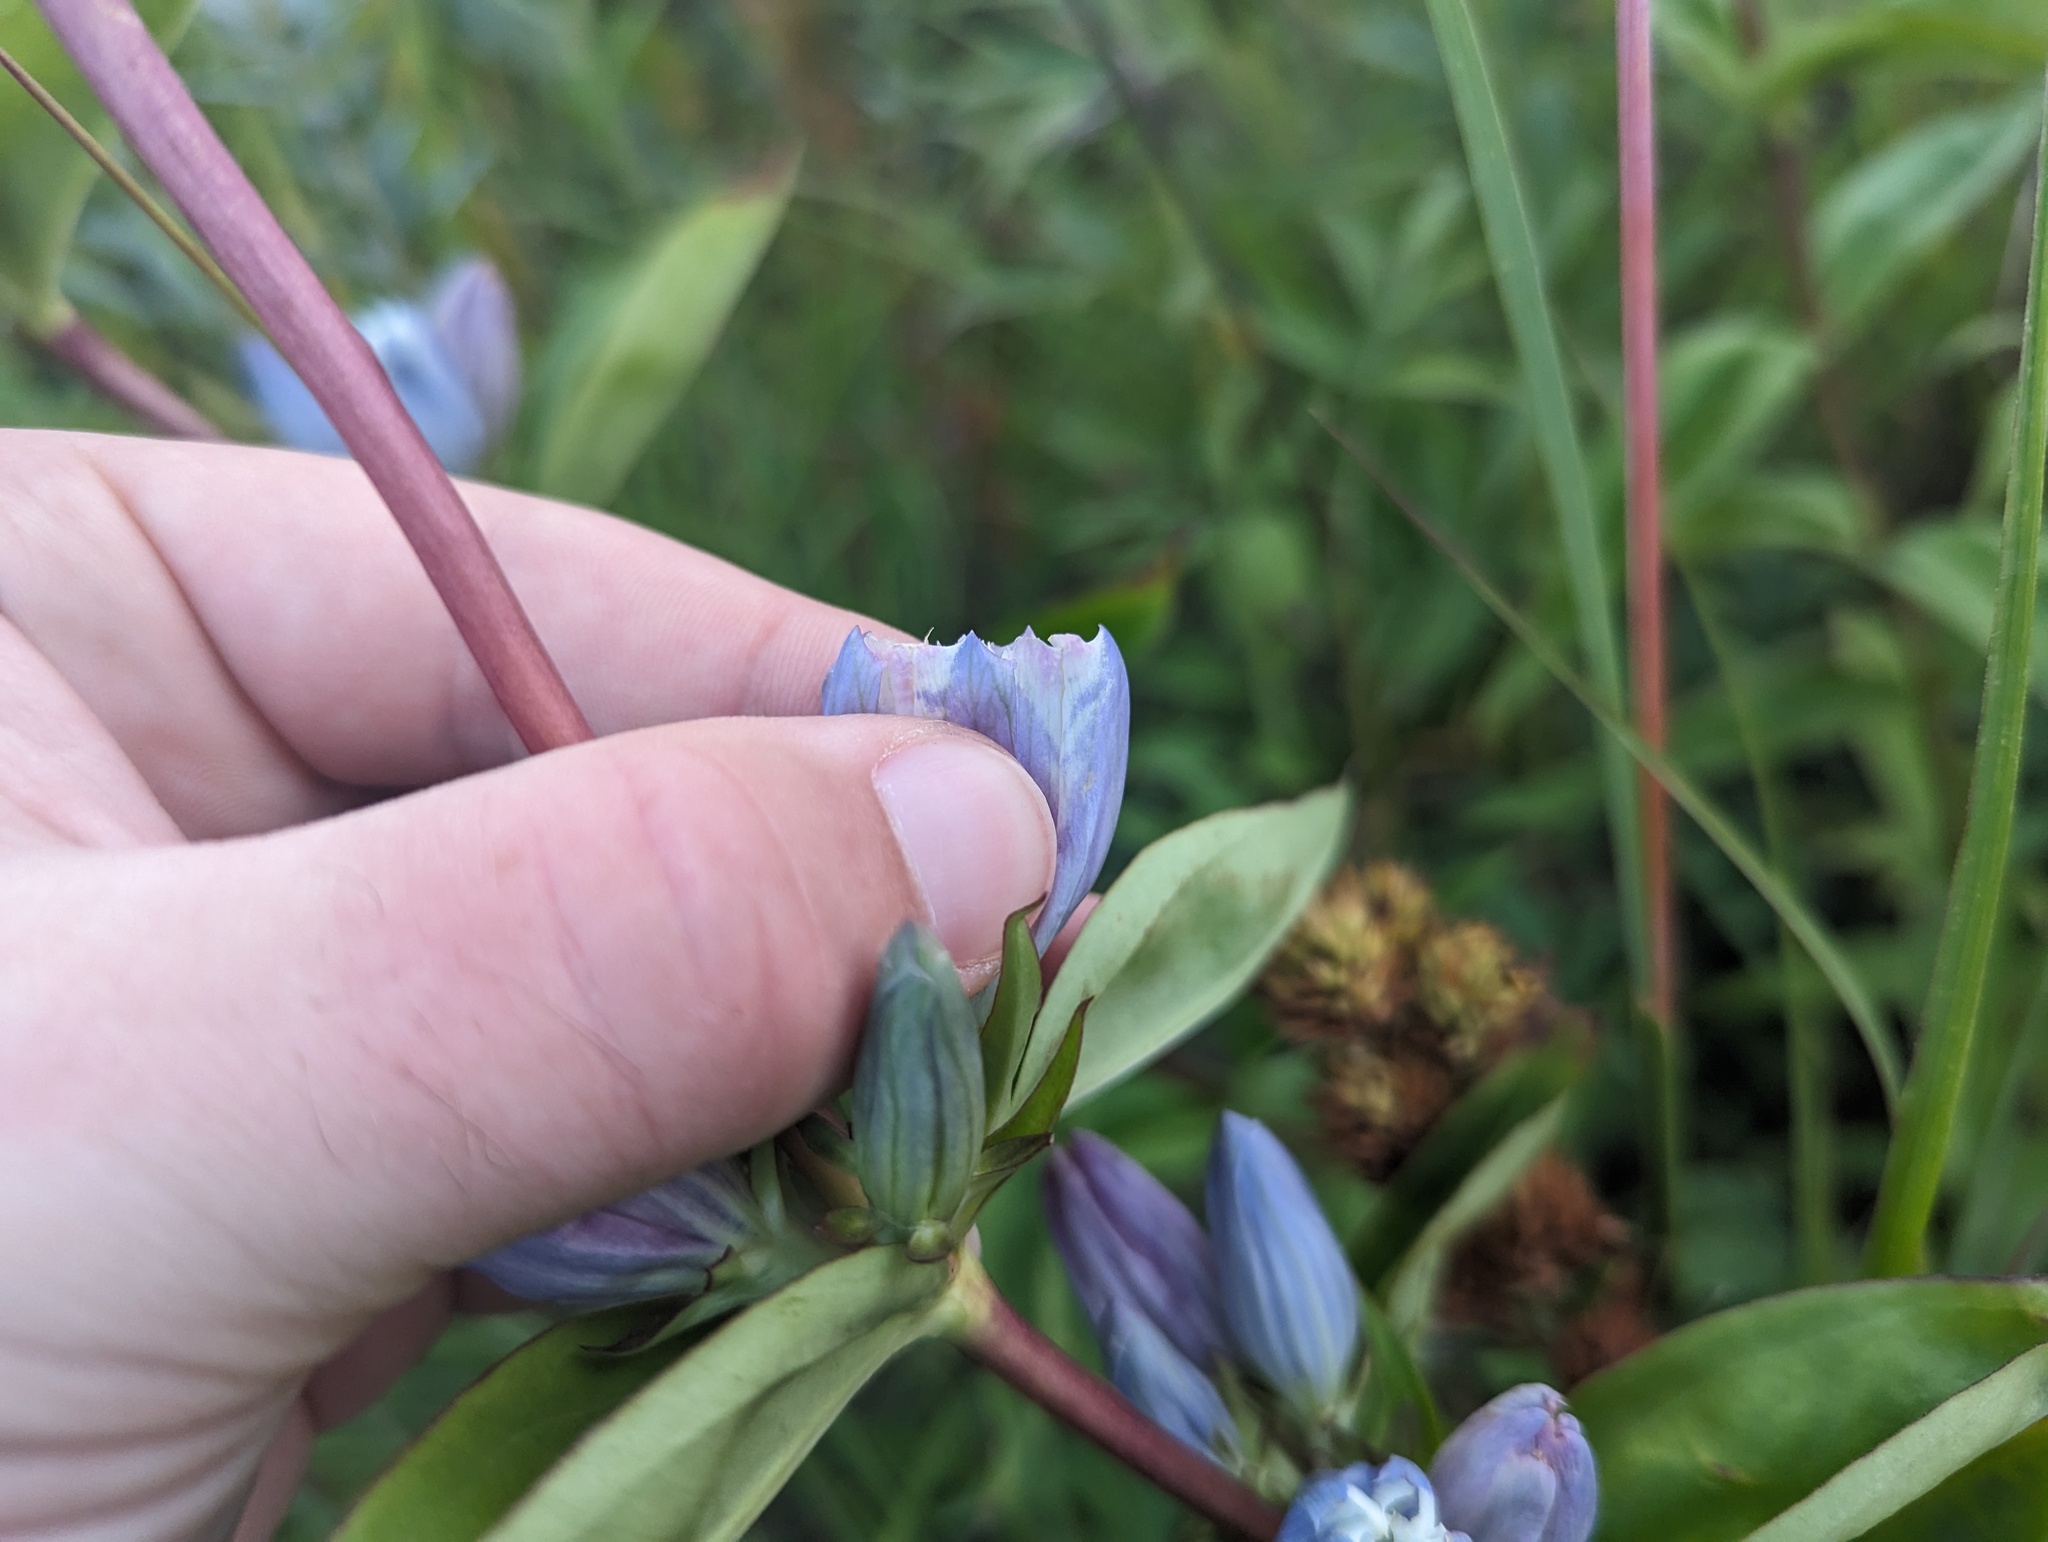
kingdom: Plantae
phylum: Tracheophyta
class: Magnoliopsida
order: Gentianales
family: Gentianaceae
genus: Gentiana
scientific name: Gentiana pallidocyanea
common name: Hybrid bottle gentian
